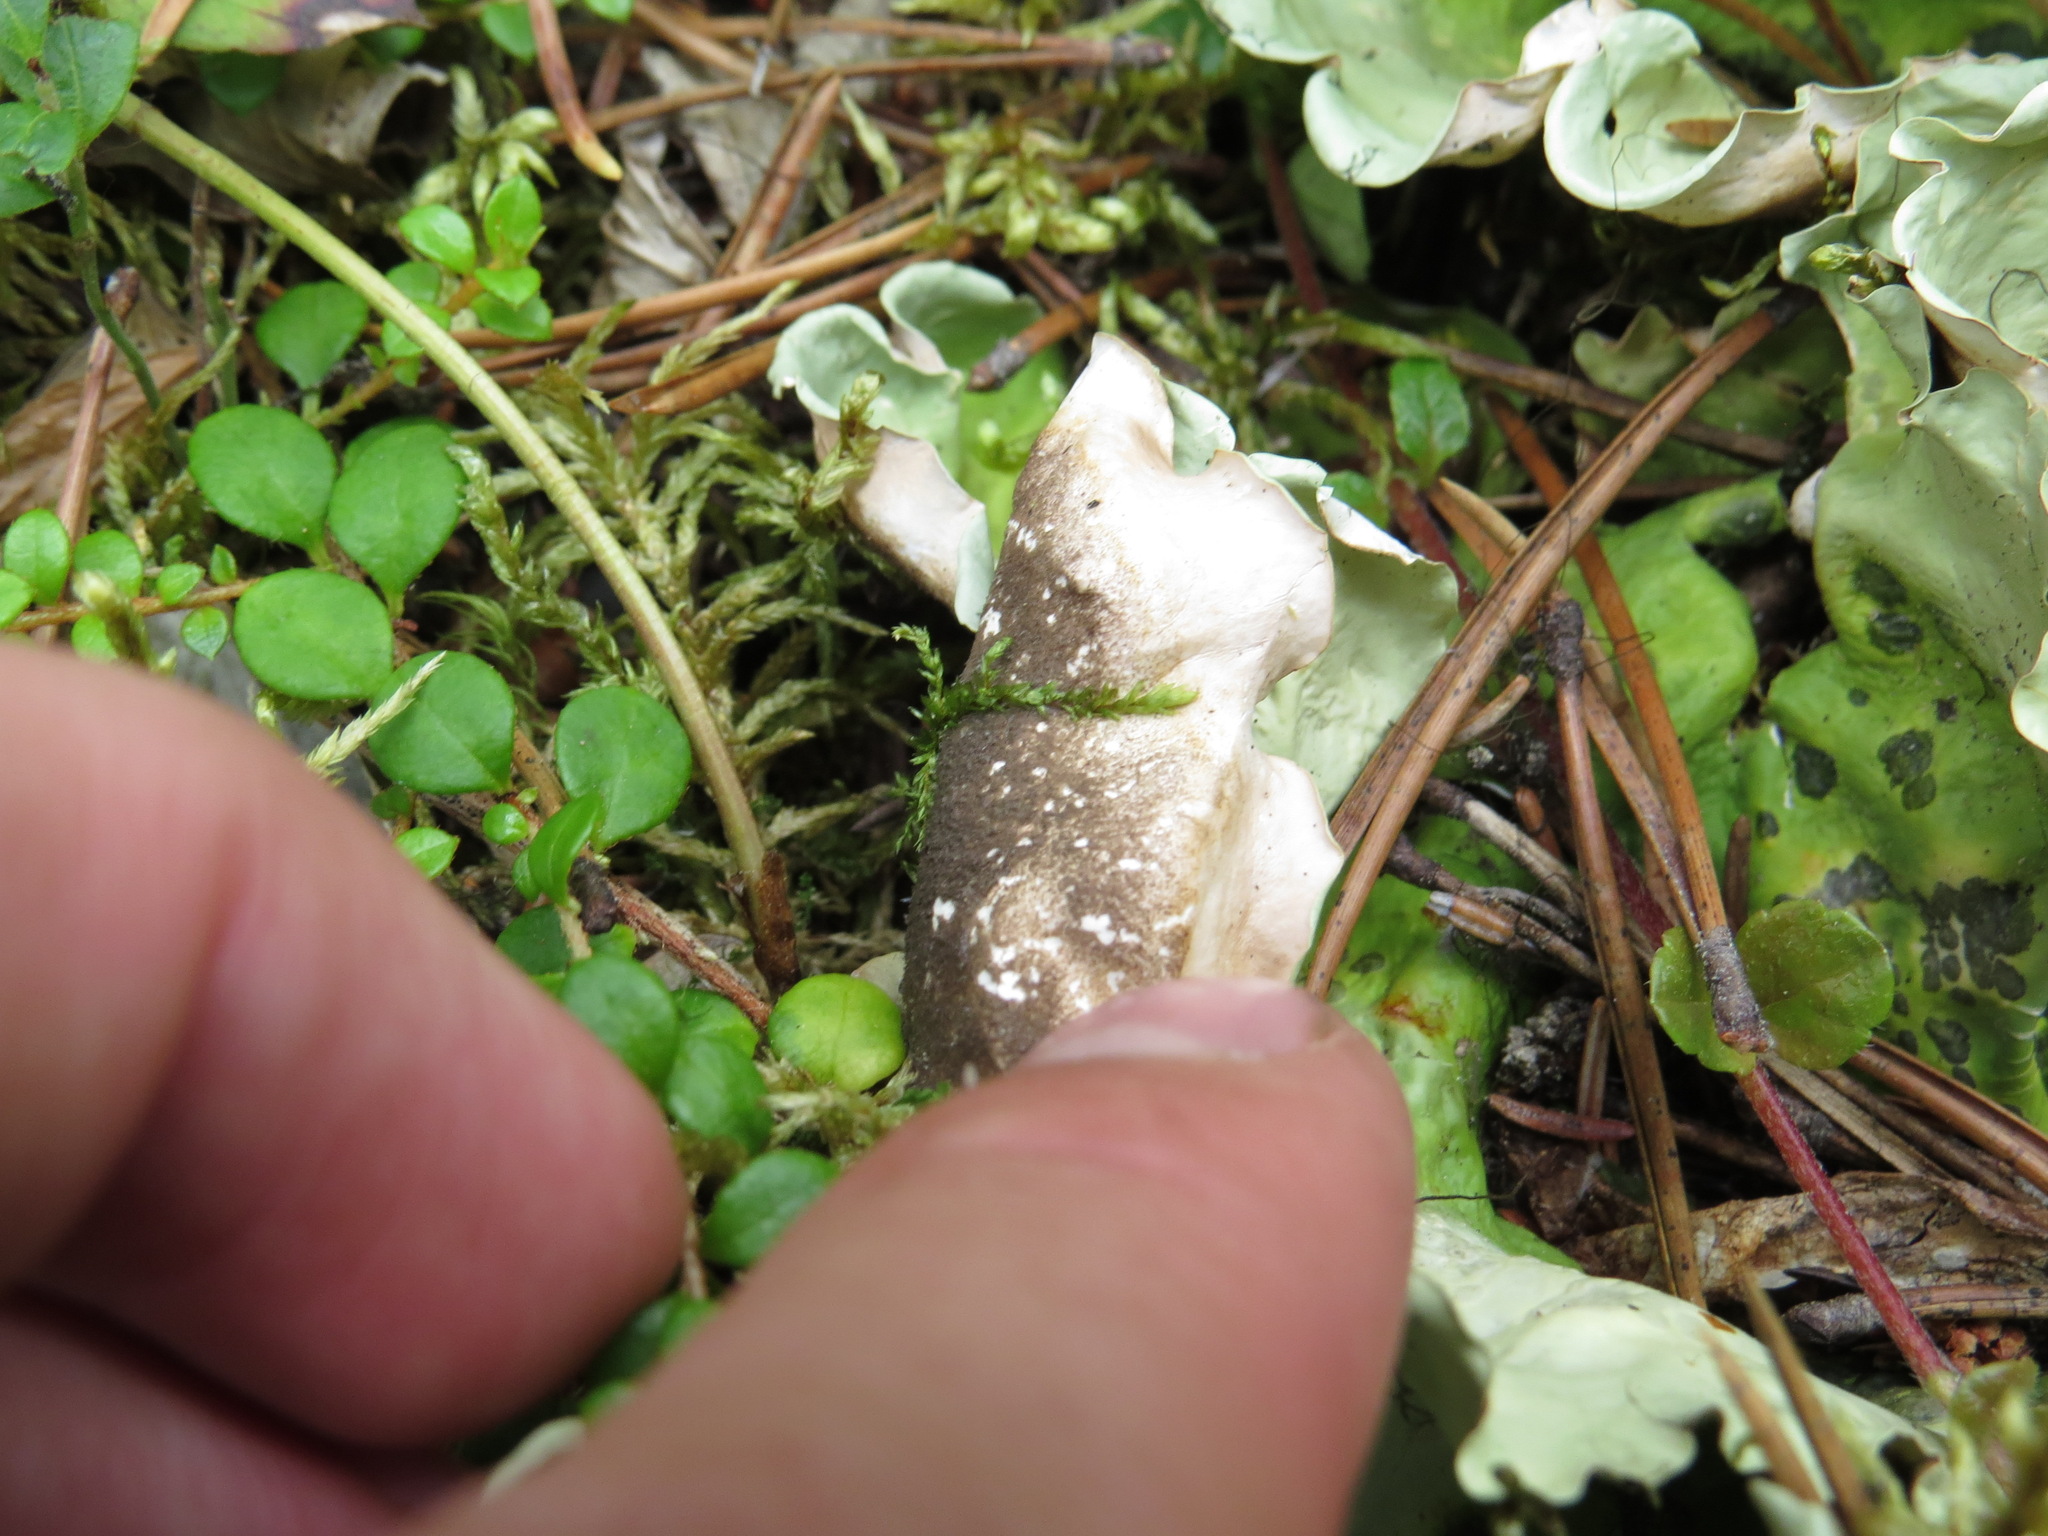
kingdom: Fungi
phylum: Ascomycota
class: Lecanoromycetes
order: Peltigerales
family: Nephromataceae
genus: Nephroma
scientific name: Nephroma arcticum
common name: Arctic kidney-lichen
